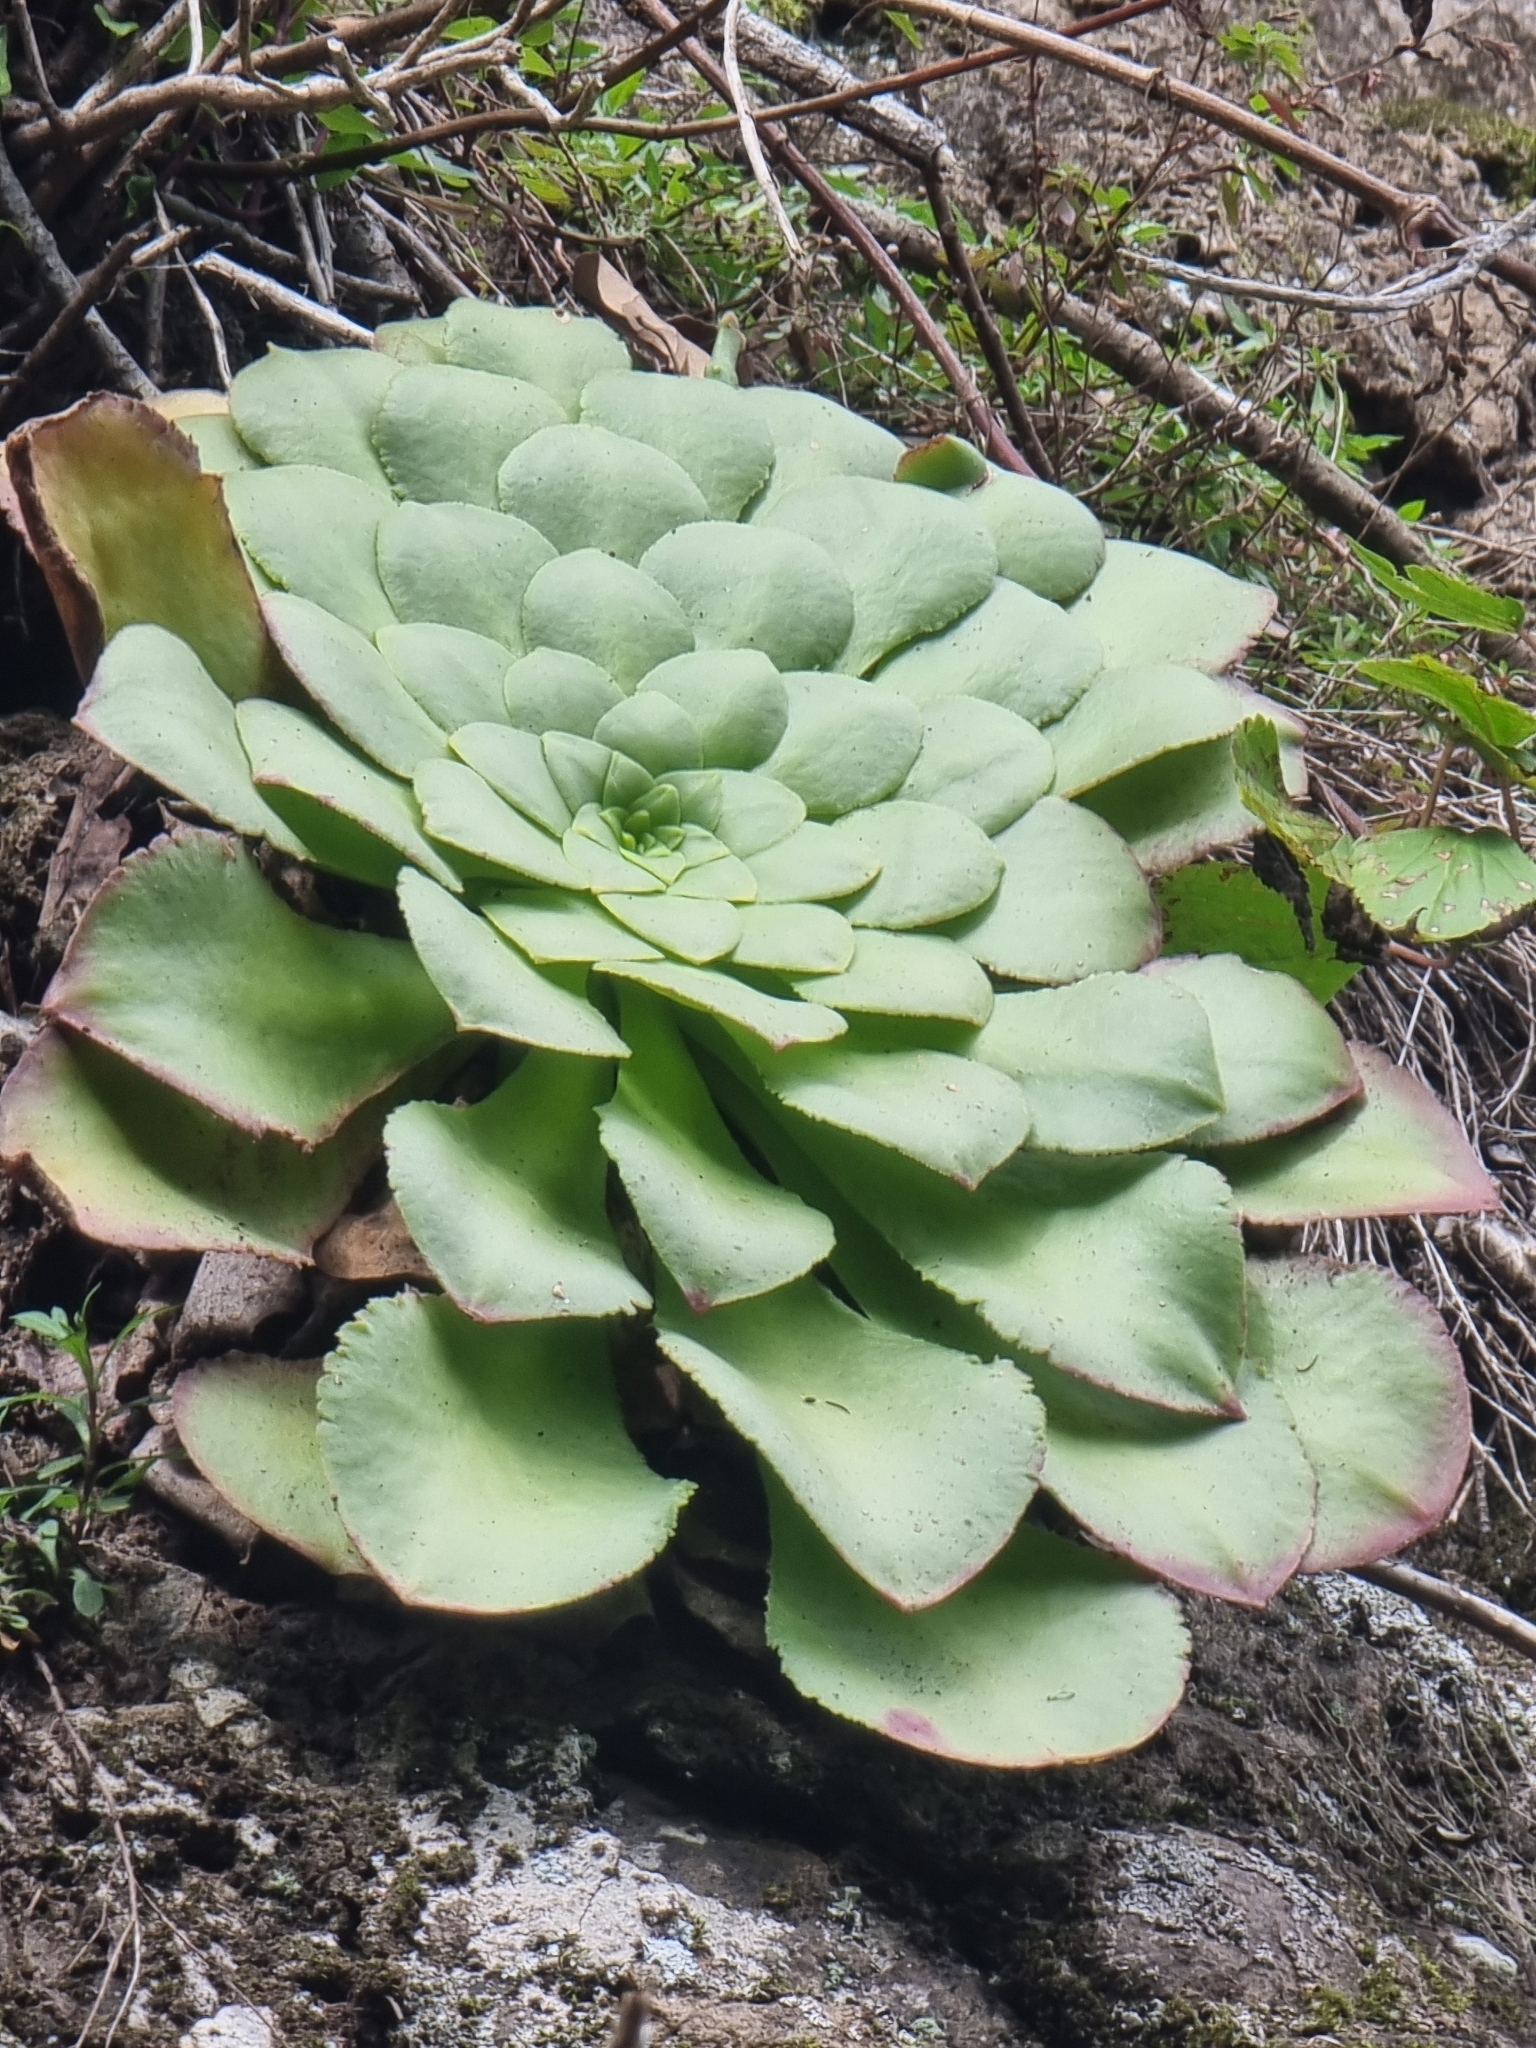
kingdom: Plantae
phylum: Tracheophyta
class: Magnoliopsida
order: Saxifragales
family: Crassulaceae
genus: Aeonium
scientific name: Aeonium glandulosum
